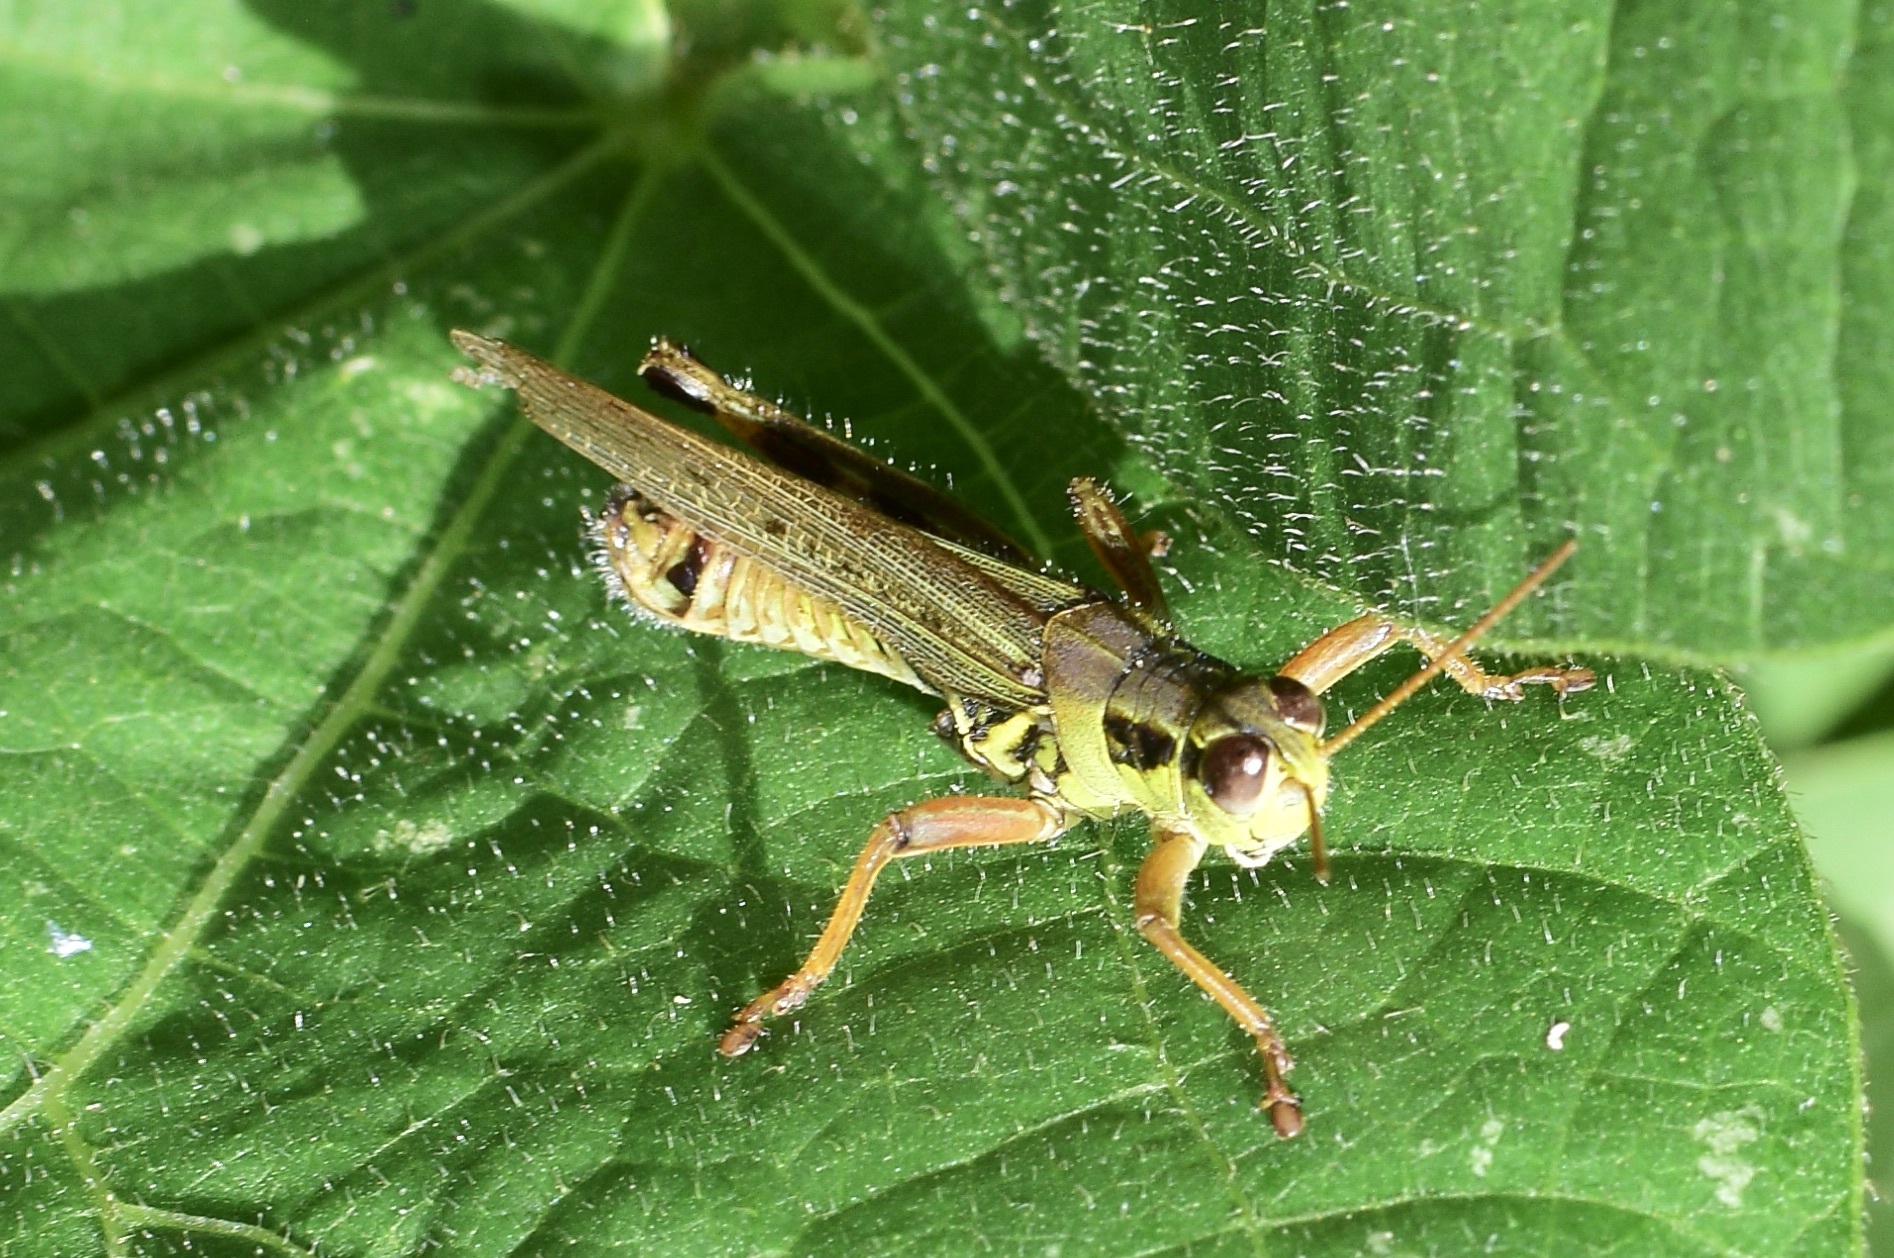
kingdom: Animalia
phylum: Arthropoda
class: Insecta
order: Orthoptera
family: Acrididae
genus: Melanoplus
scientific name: Melanoplus femurrubrum
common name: Red-legged grasshopper
